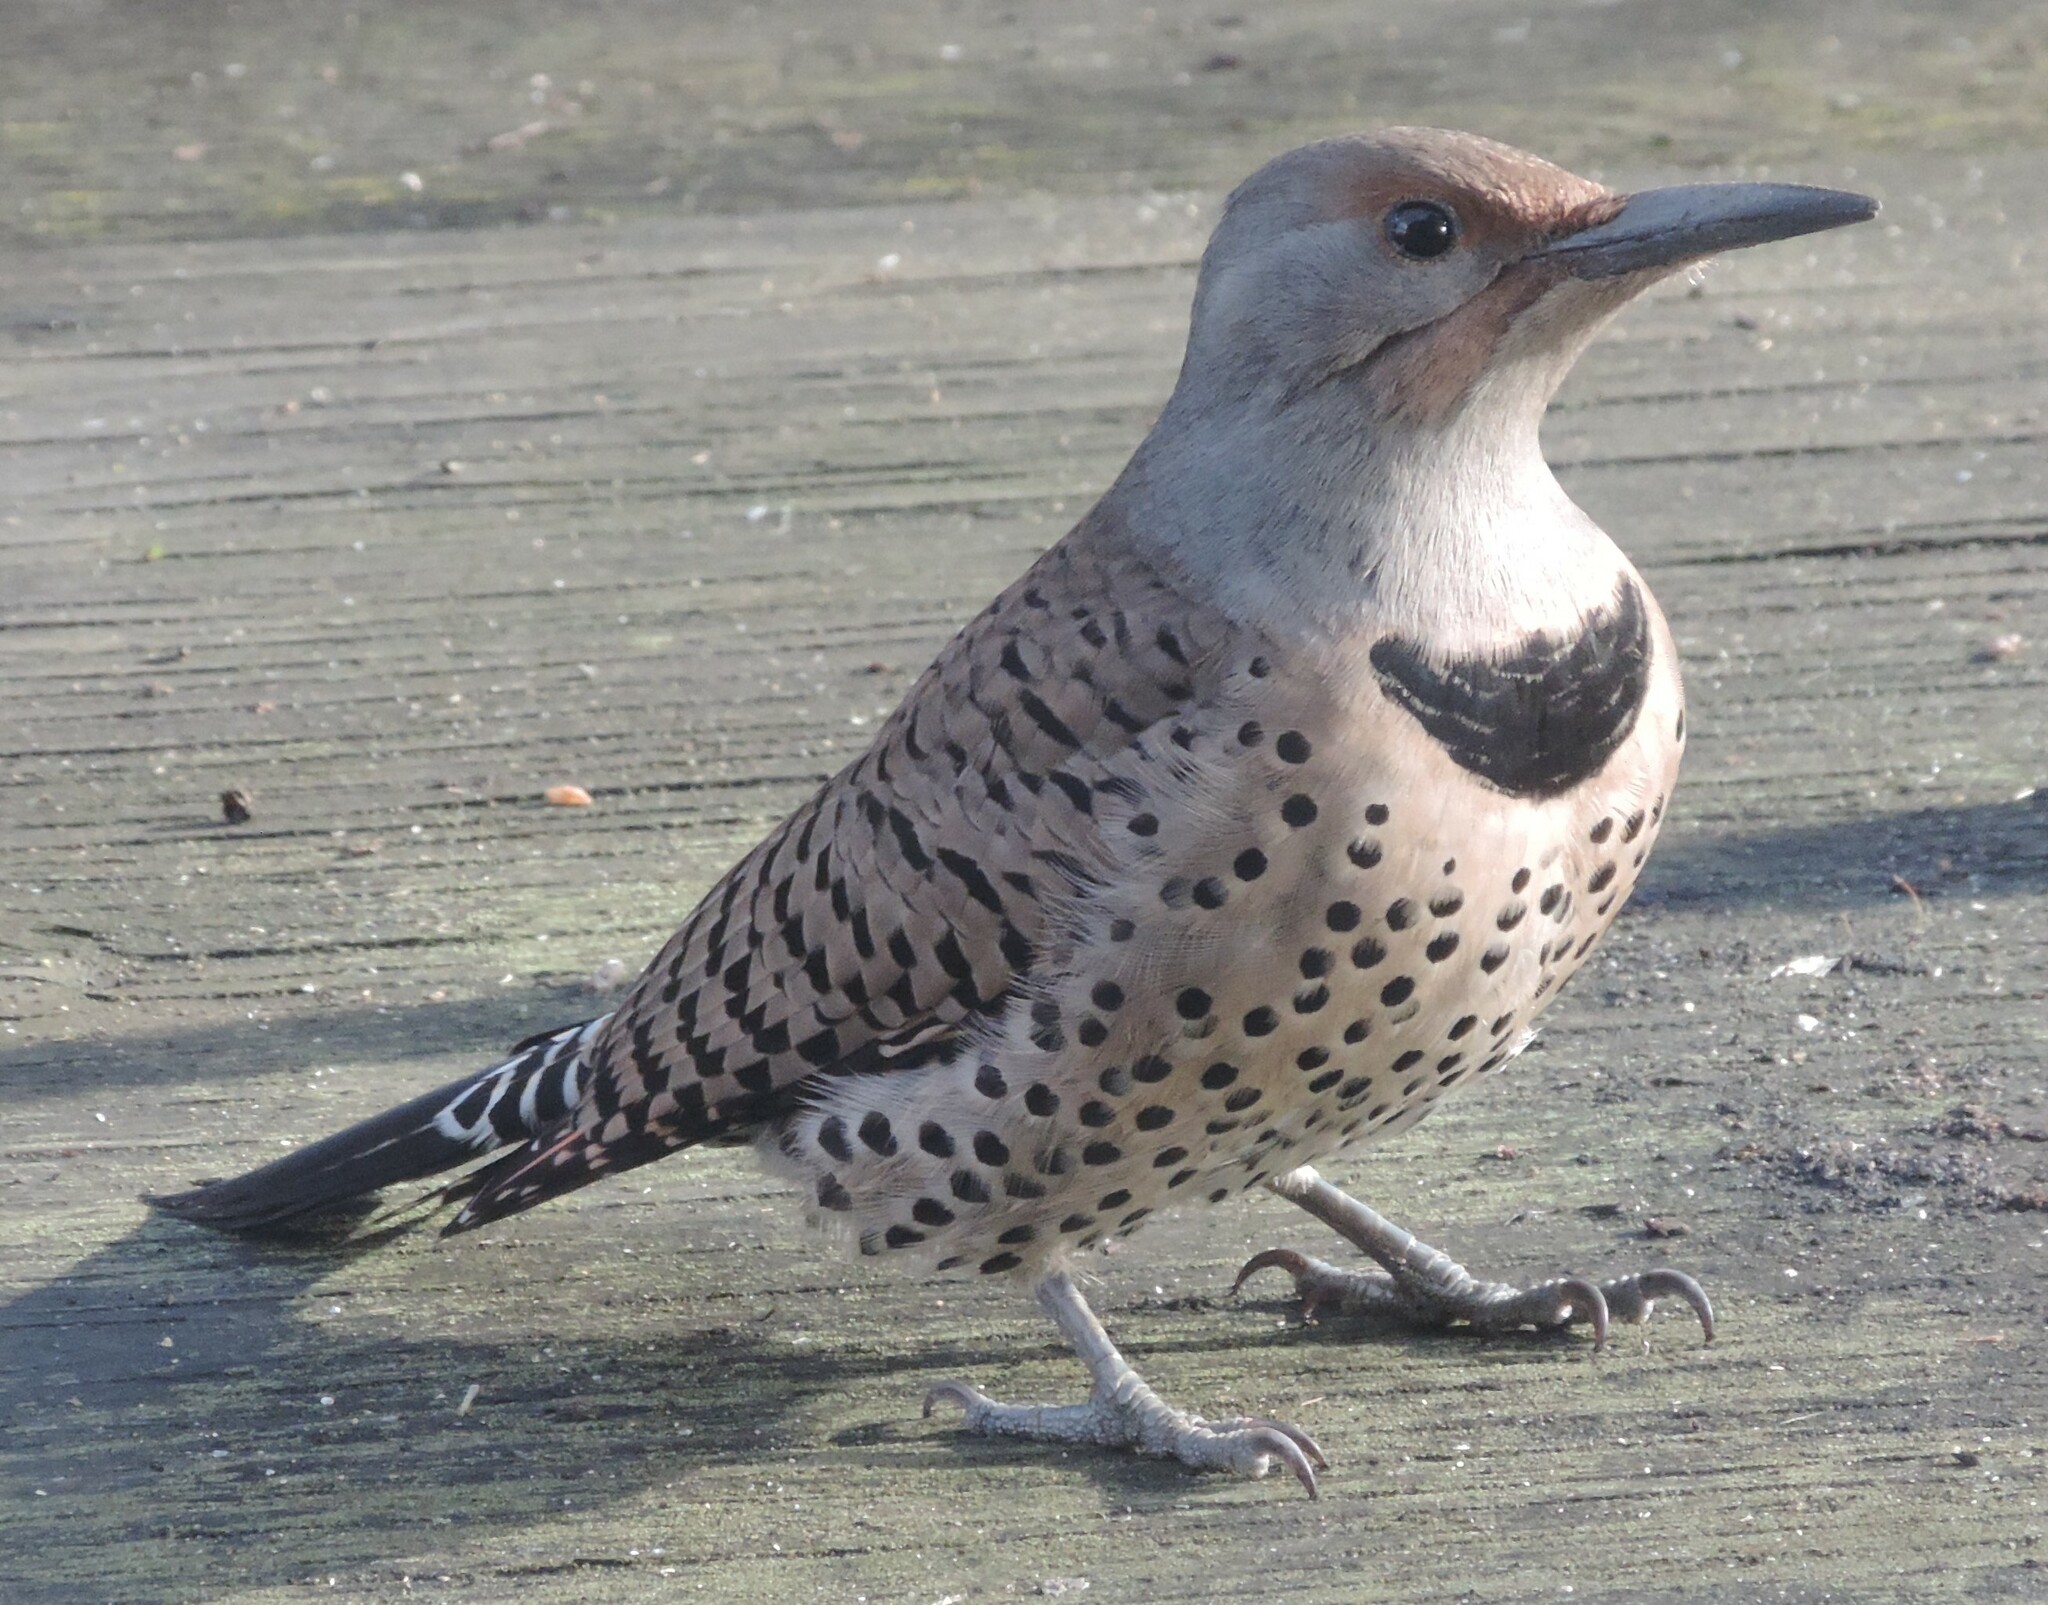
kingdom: Animalia
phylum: Chordata
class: Aves
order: Piciformes
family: Picidae
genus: Colaptes
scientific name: Colaptes auratus
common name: Northern flicker
